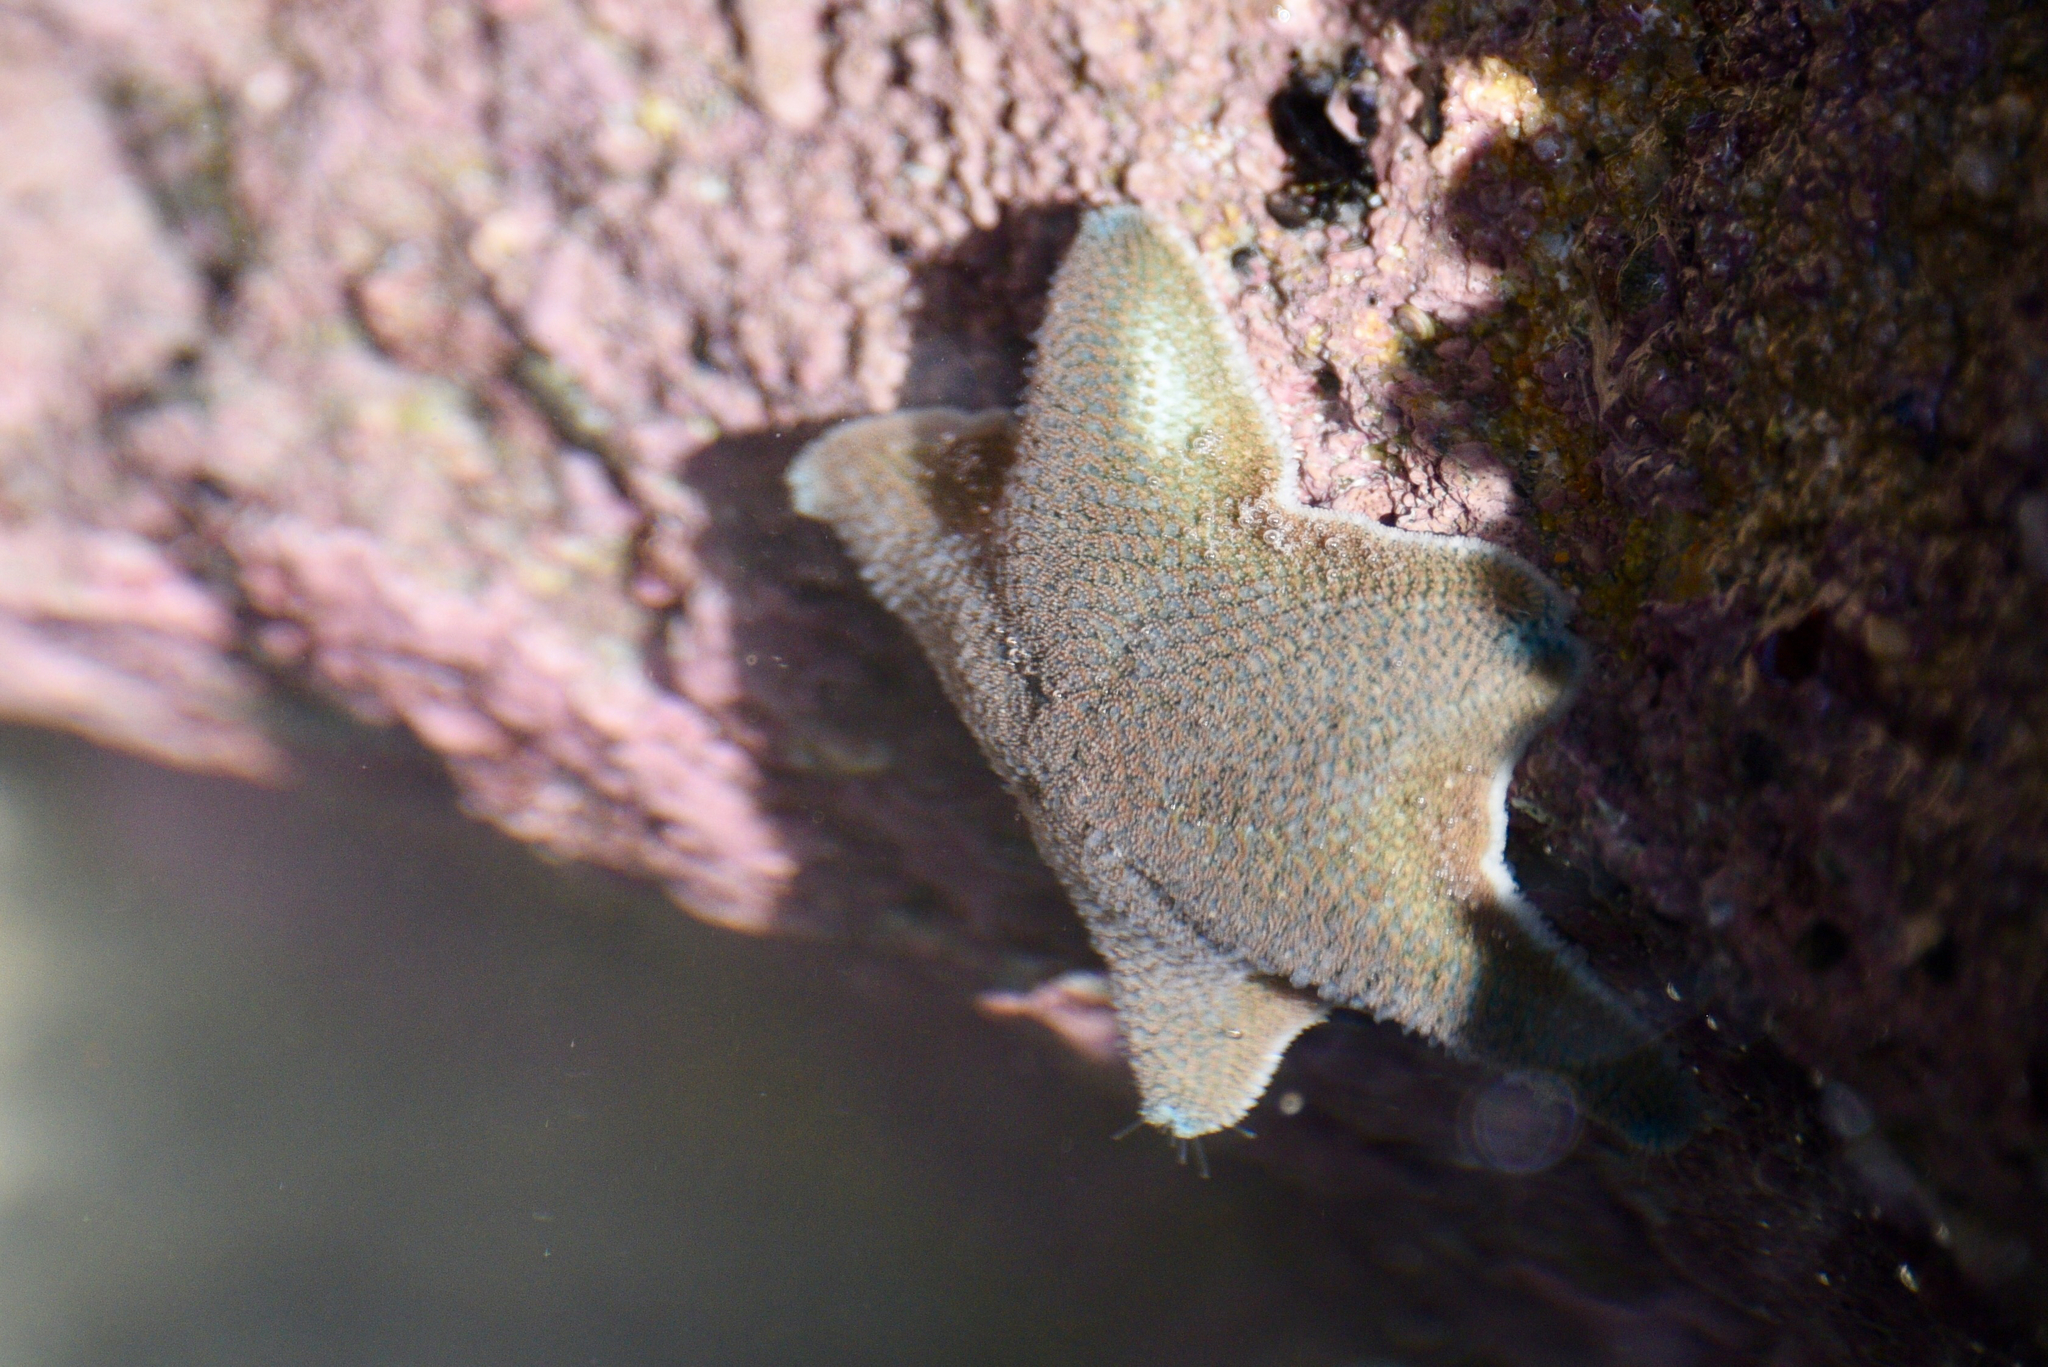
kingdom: Animalia
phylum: Echinodermata
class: Asteroidea
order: Valvatida
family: Asterinidae
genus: Patiriella
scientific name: Patiriella regularis
